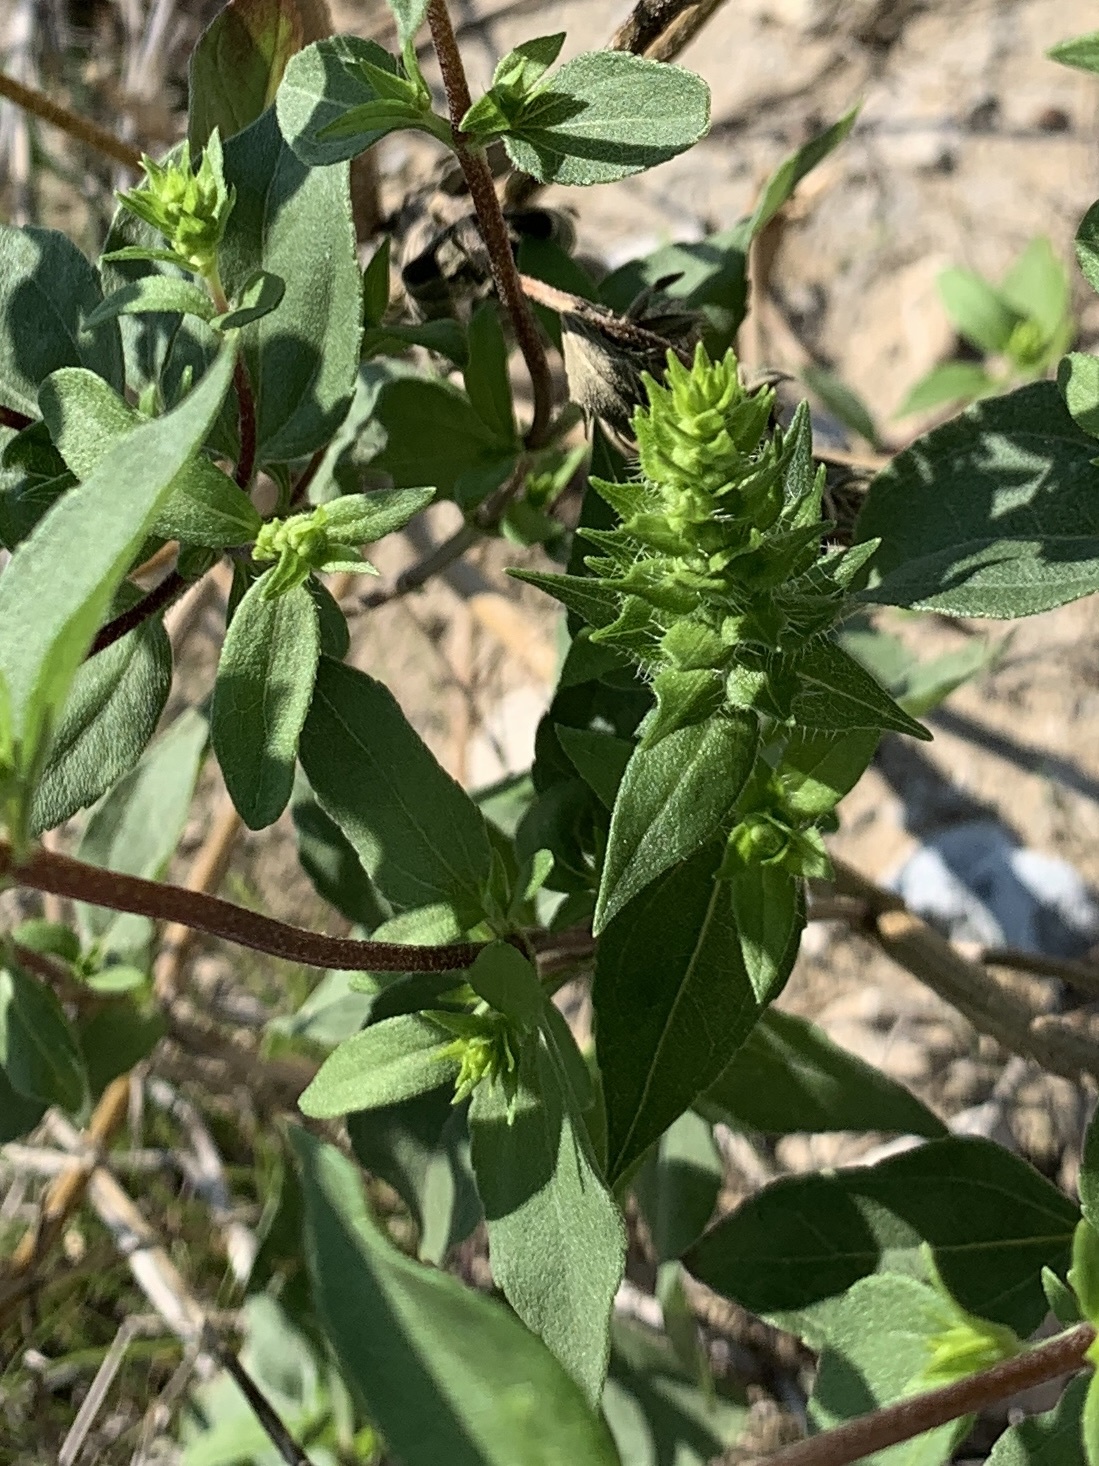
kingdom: Plantae
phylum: Tracheophyta
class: Magnoliopsida
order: Asterales
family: Asteraceae
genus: Iva
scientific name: Iva annua
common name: Marsh-elder
